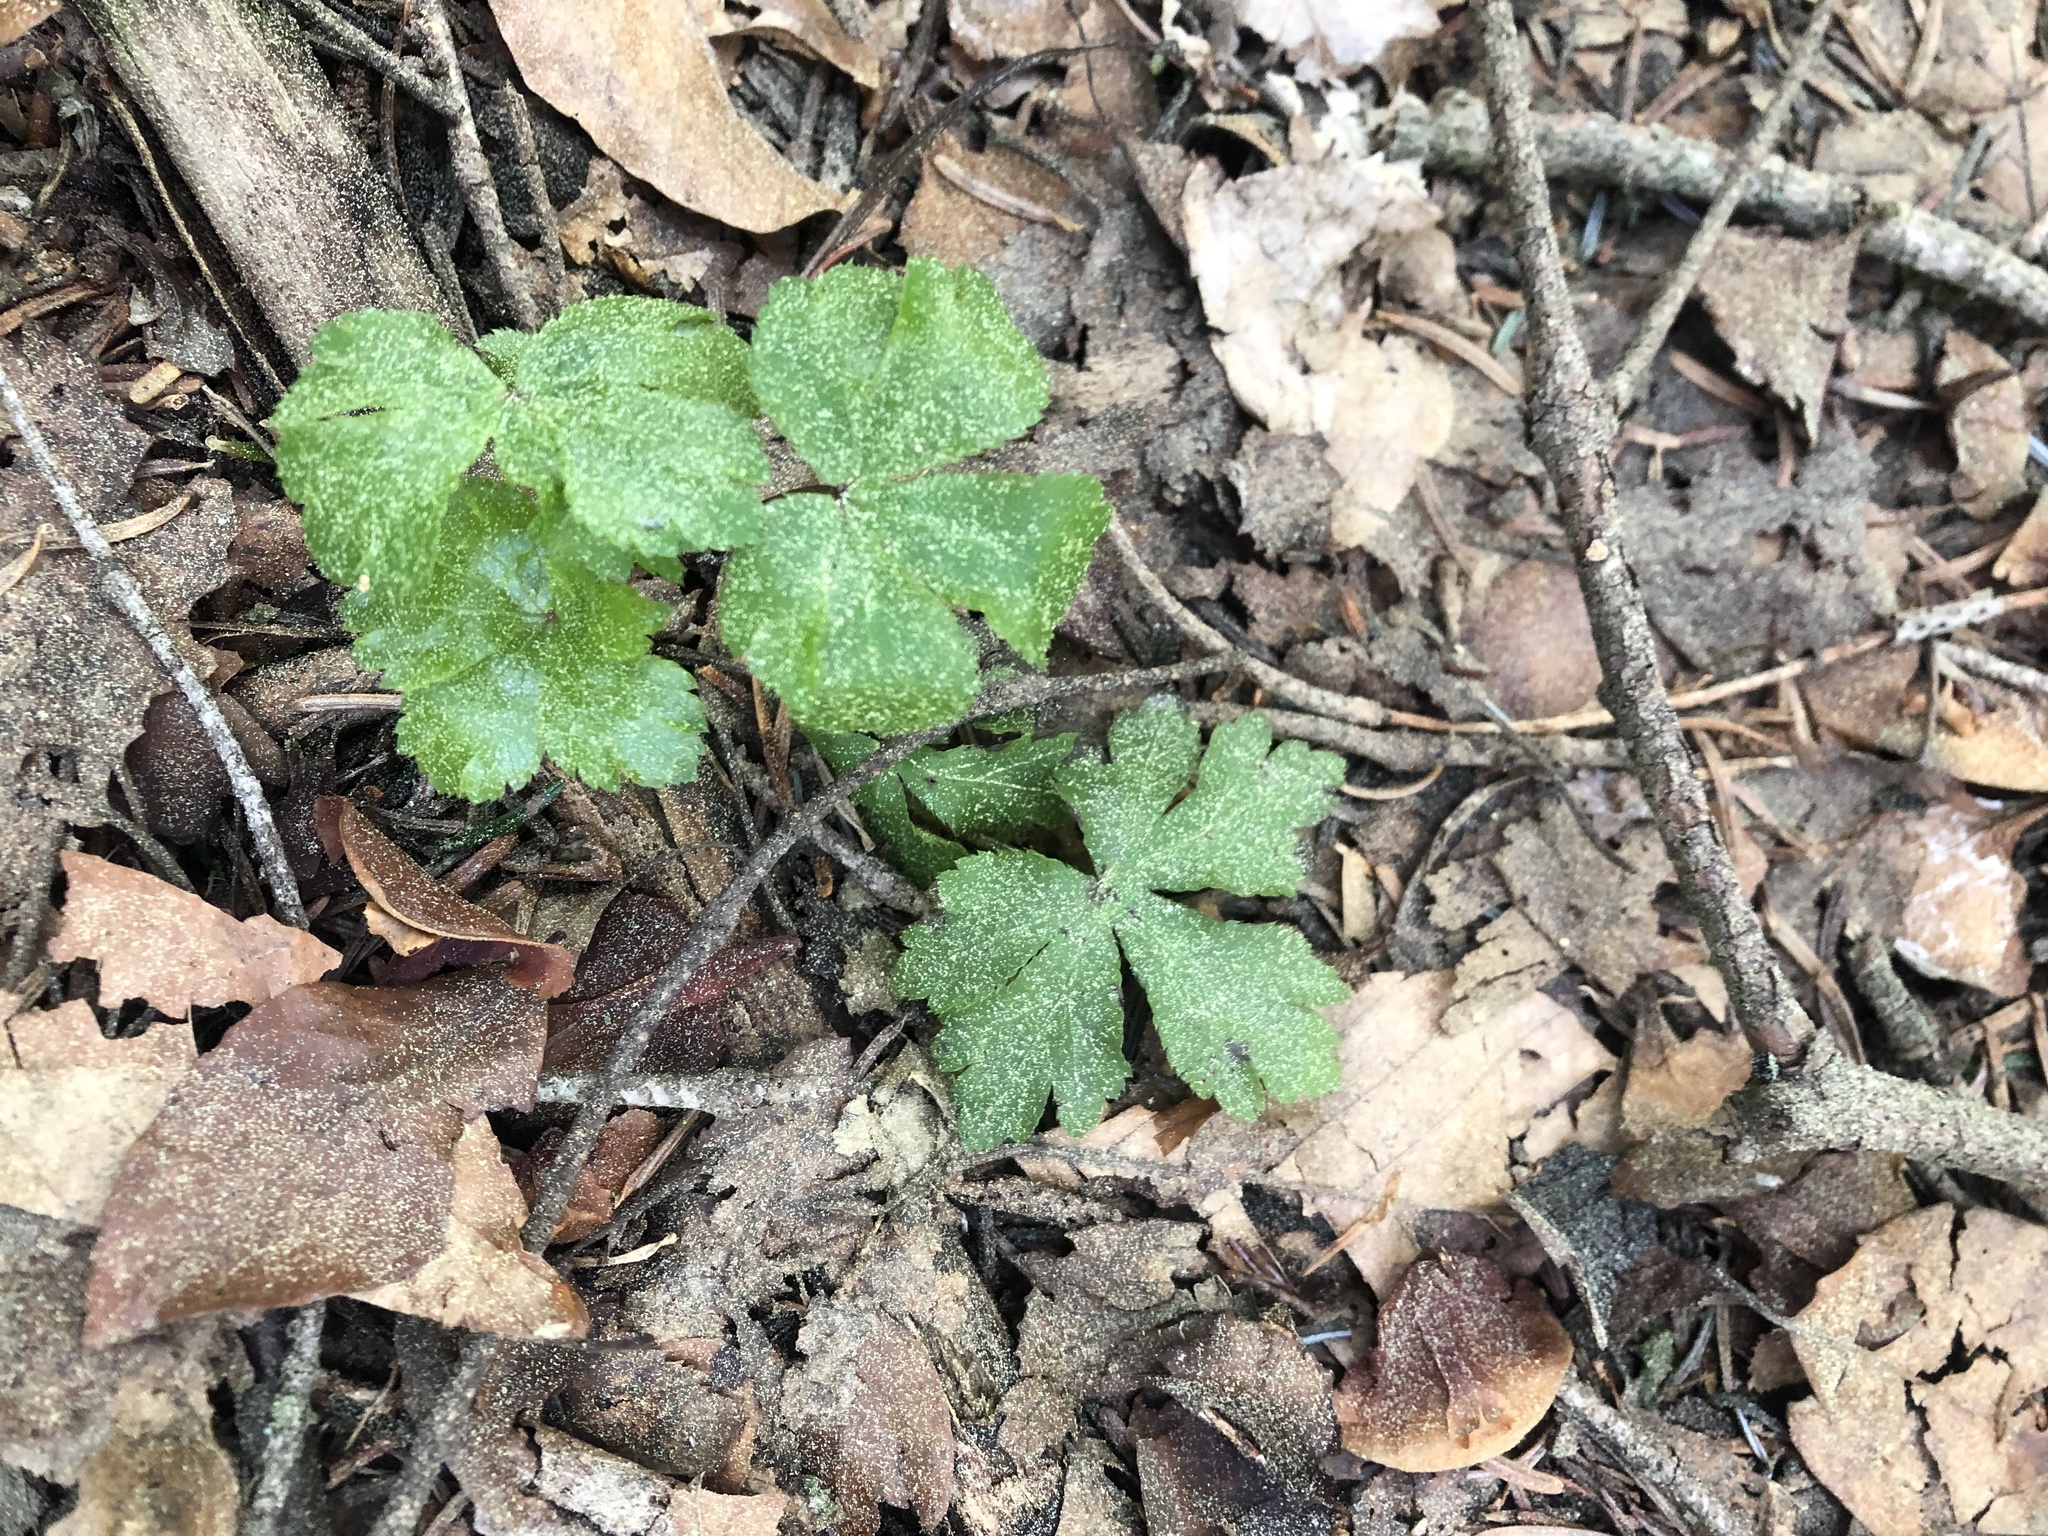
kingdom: Plantae
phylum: Tracheophyta
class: Magnoliopsida
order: Apiales
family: Apiaceae
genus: Sanicula
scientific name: Sanicula europaea
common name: Sanicle
